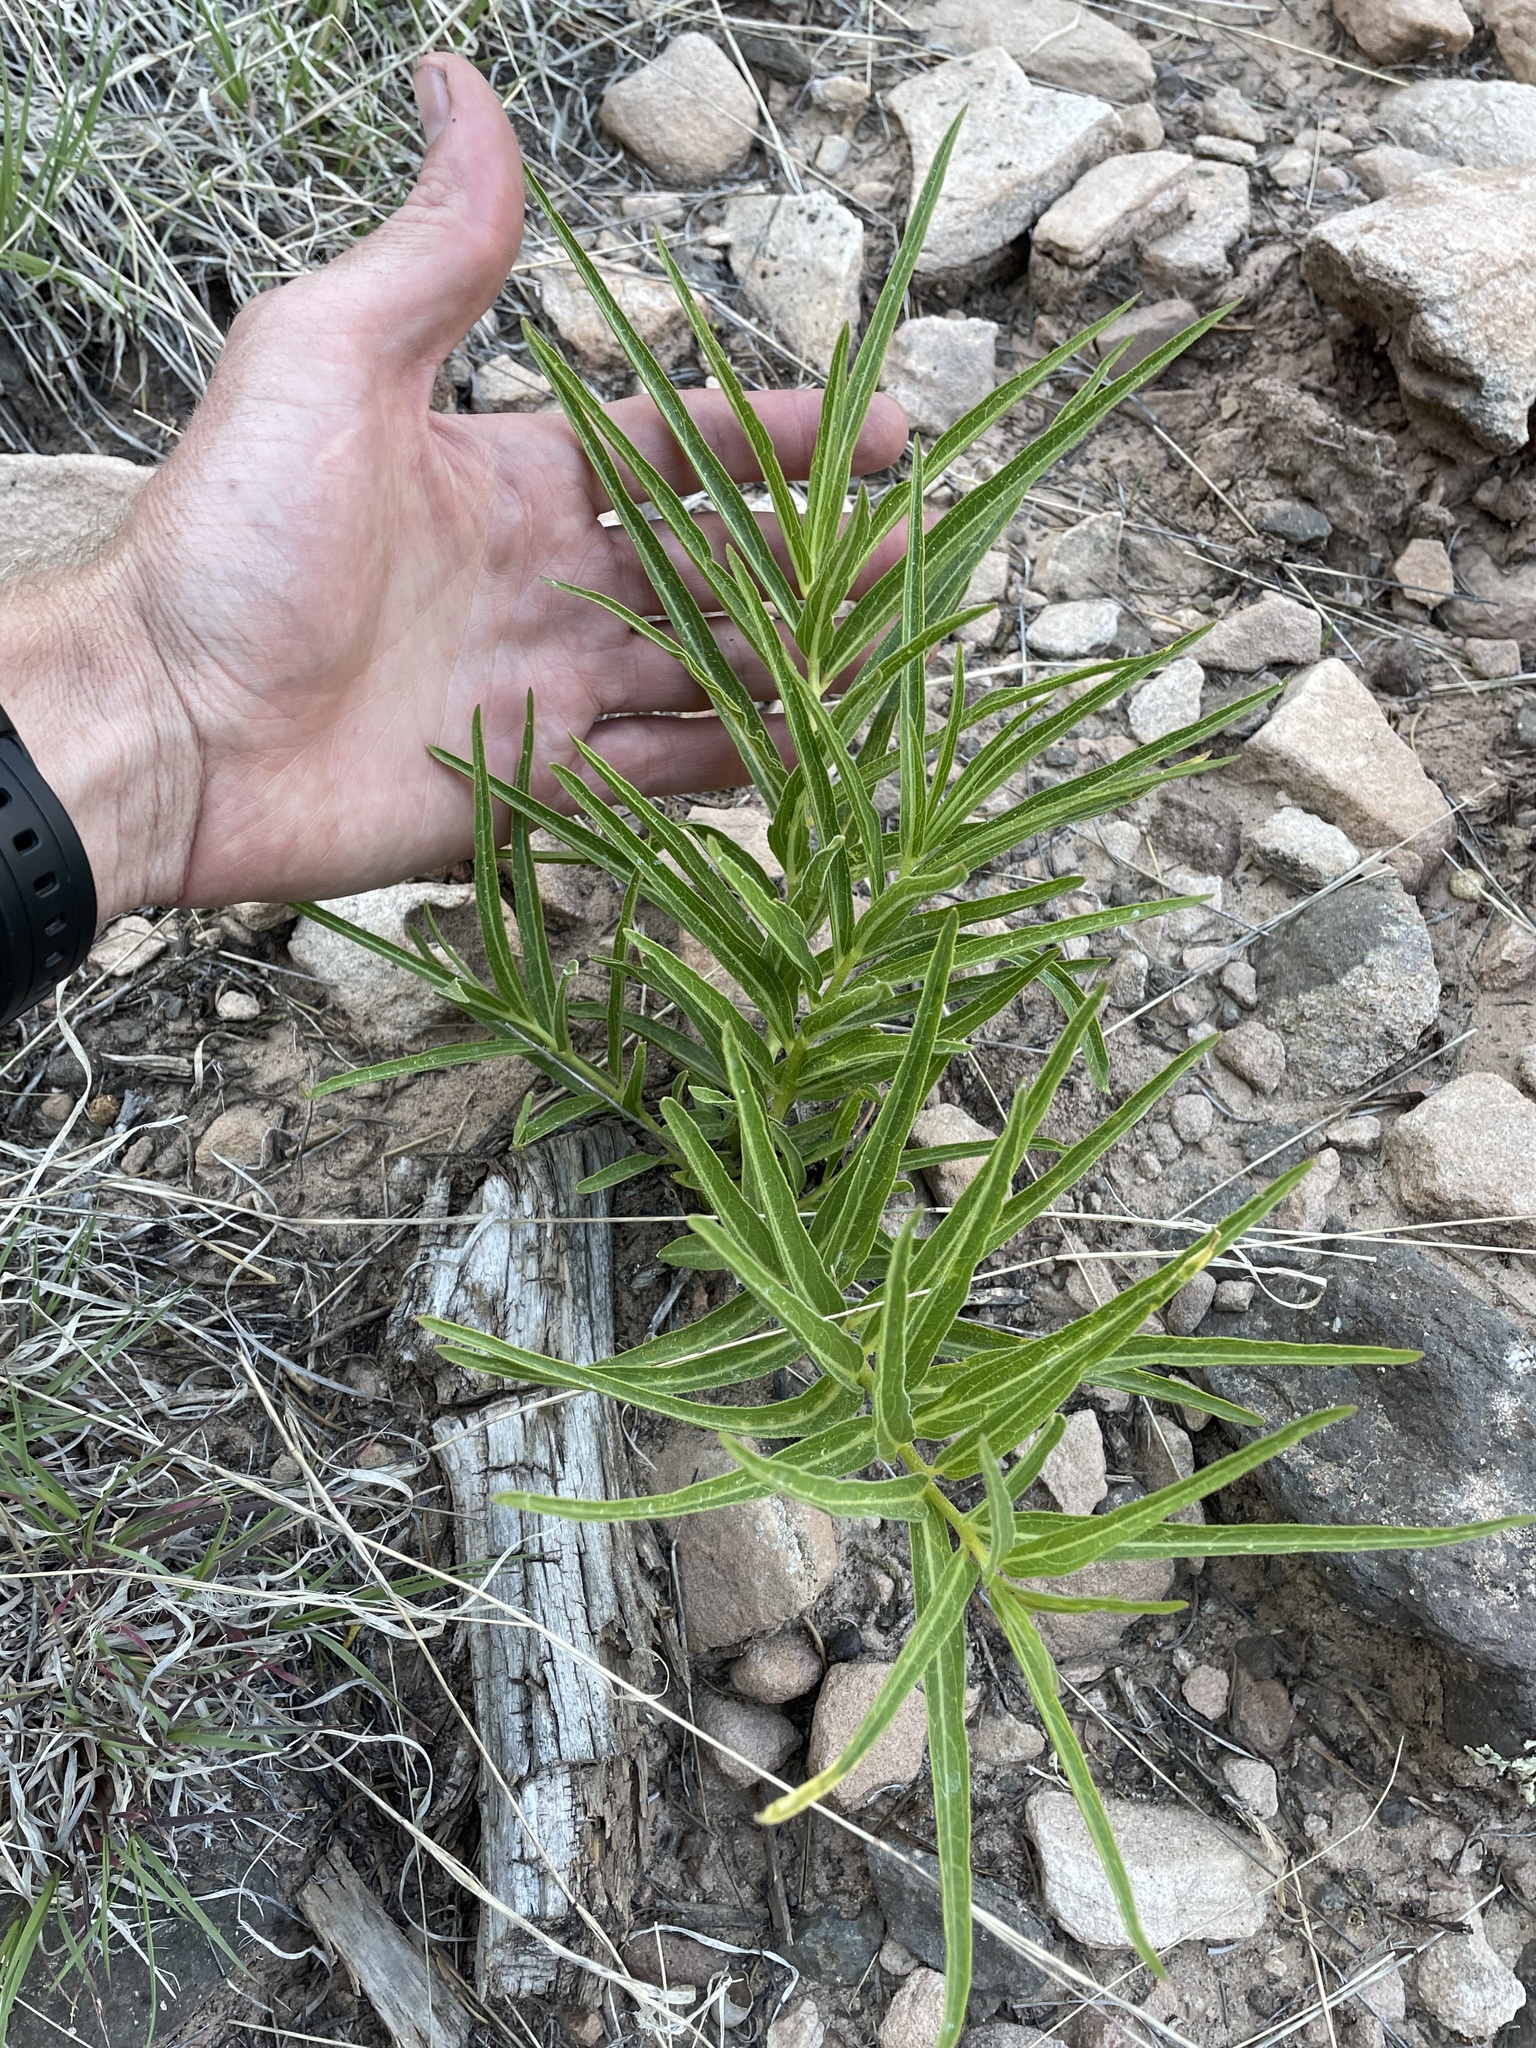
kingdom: Plantae
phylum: Tracheophyta
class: Magnoliopsida
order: Gentianales
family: Apocynaceae
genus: Asclepias
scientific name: Asclepias asperula
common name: Antelope horns
